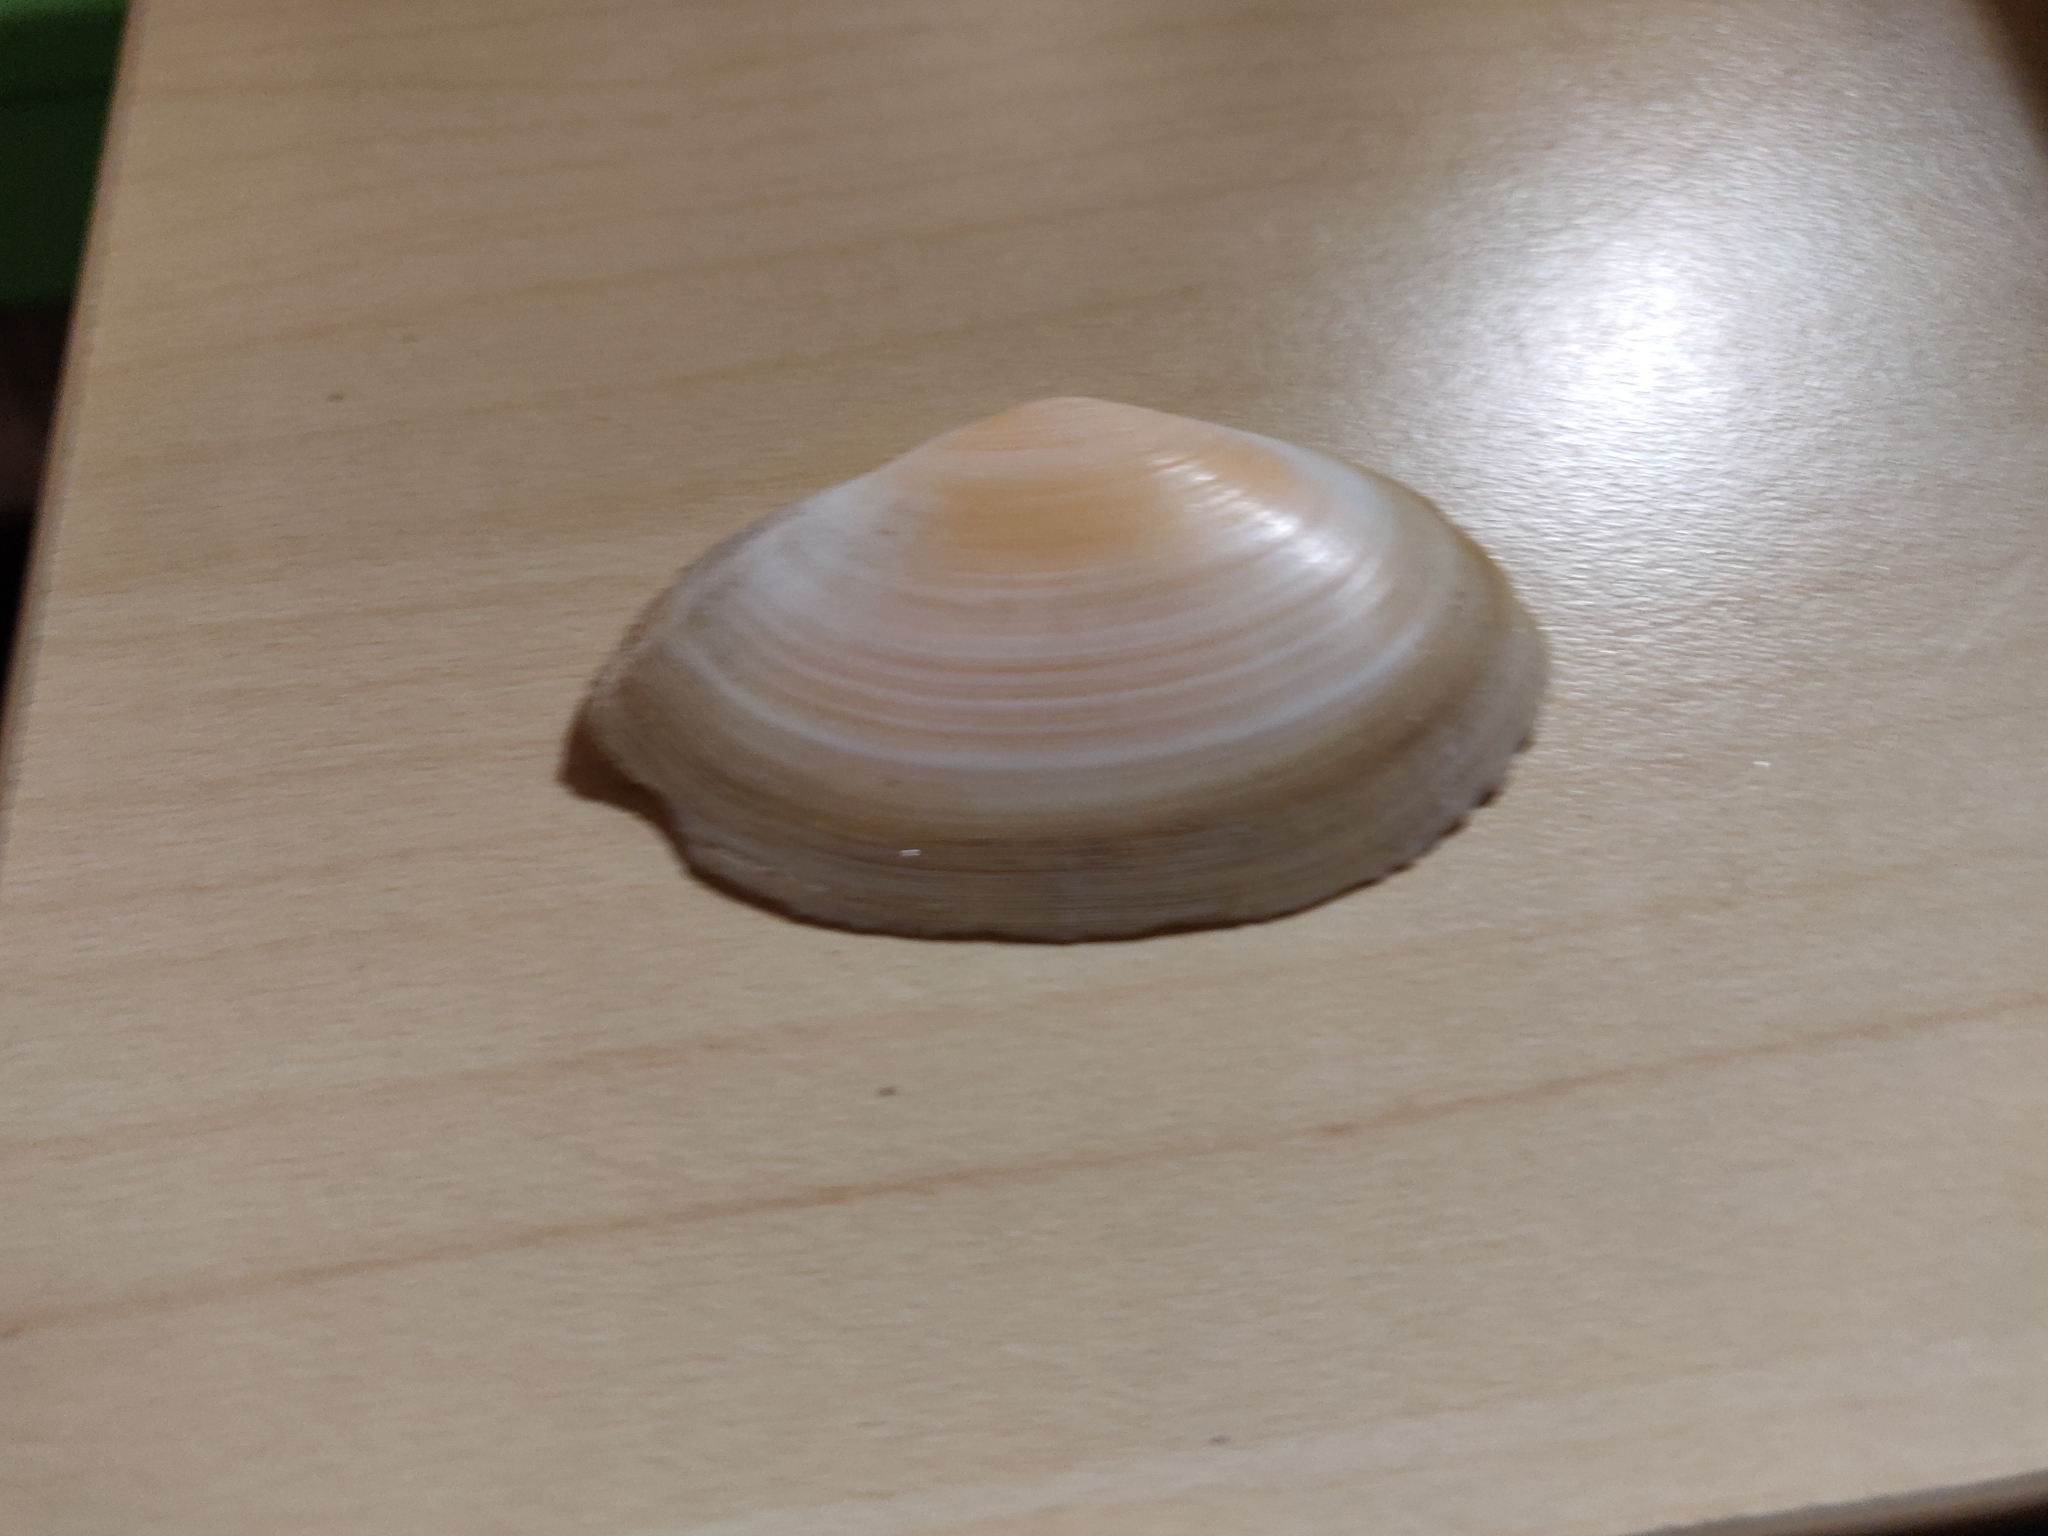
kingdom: Animalia
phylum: Mollusca
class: Bivalvia
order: Cardiida
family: Tellinidae
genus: Peronaea
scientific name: Peronaea planata
